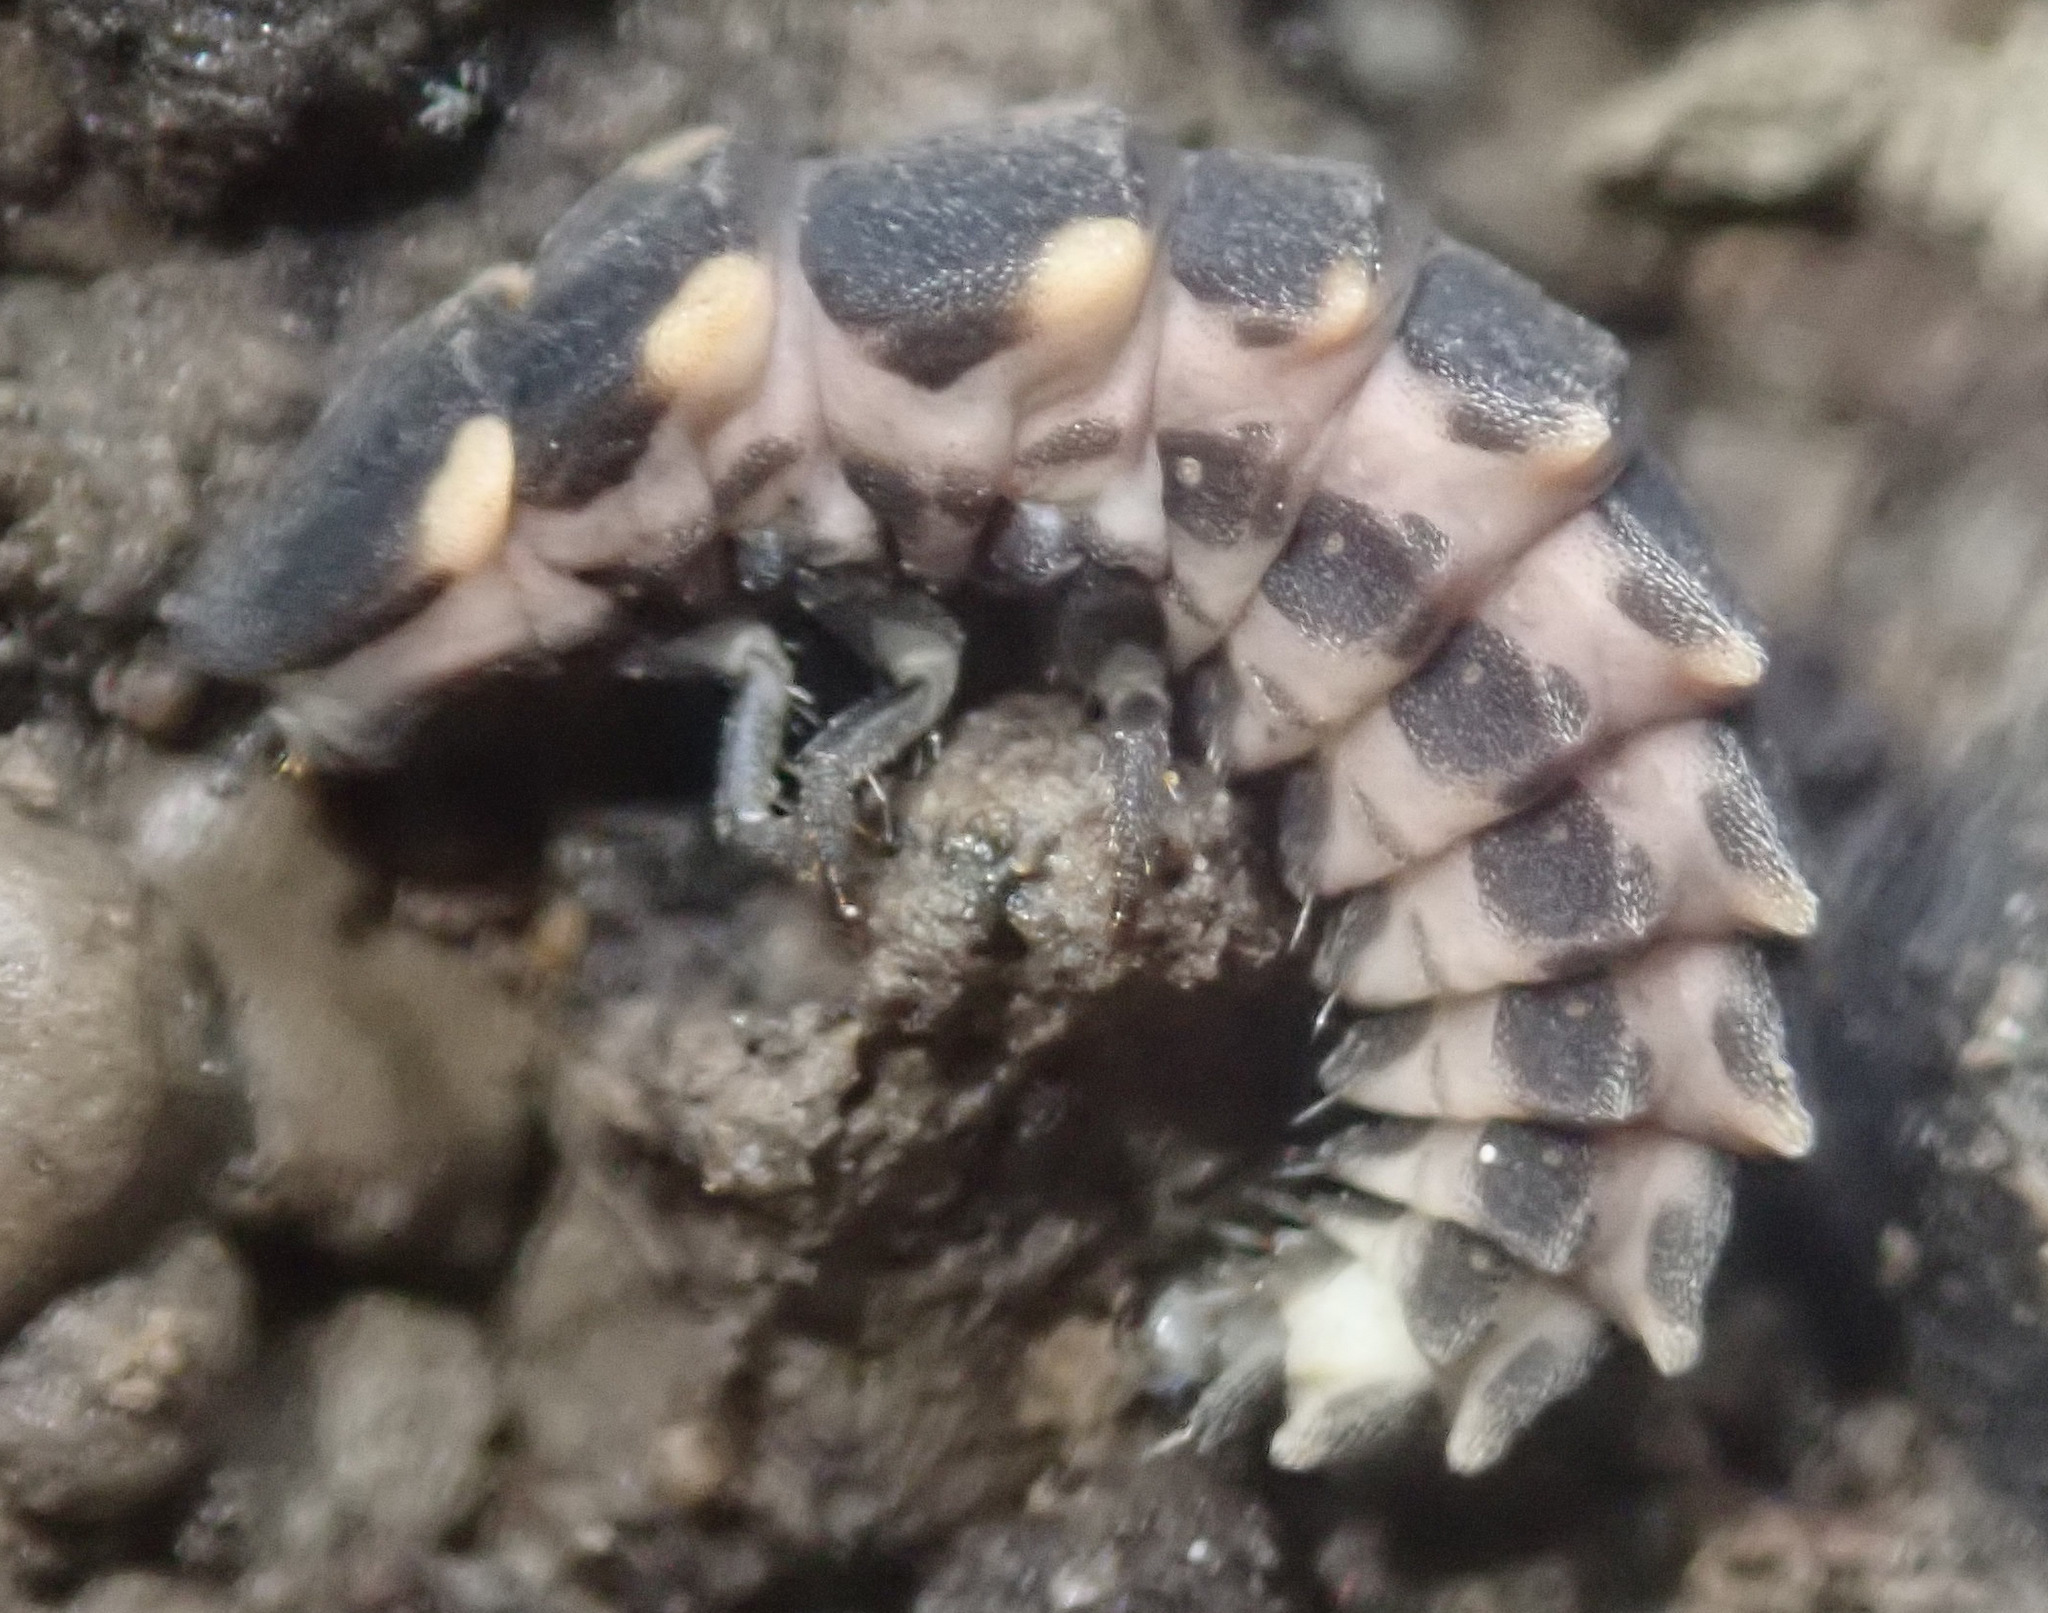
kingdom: Animalia
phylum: Arthropoda
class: Insecta
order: Coleoptera
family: Lampyridae
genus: Lampyris
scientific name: Lampyris noctiluca
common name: Glow-worm
